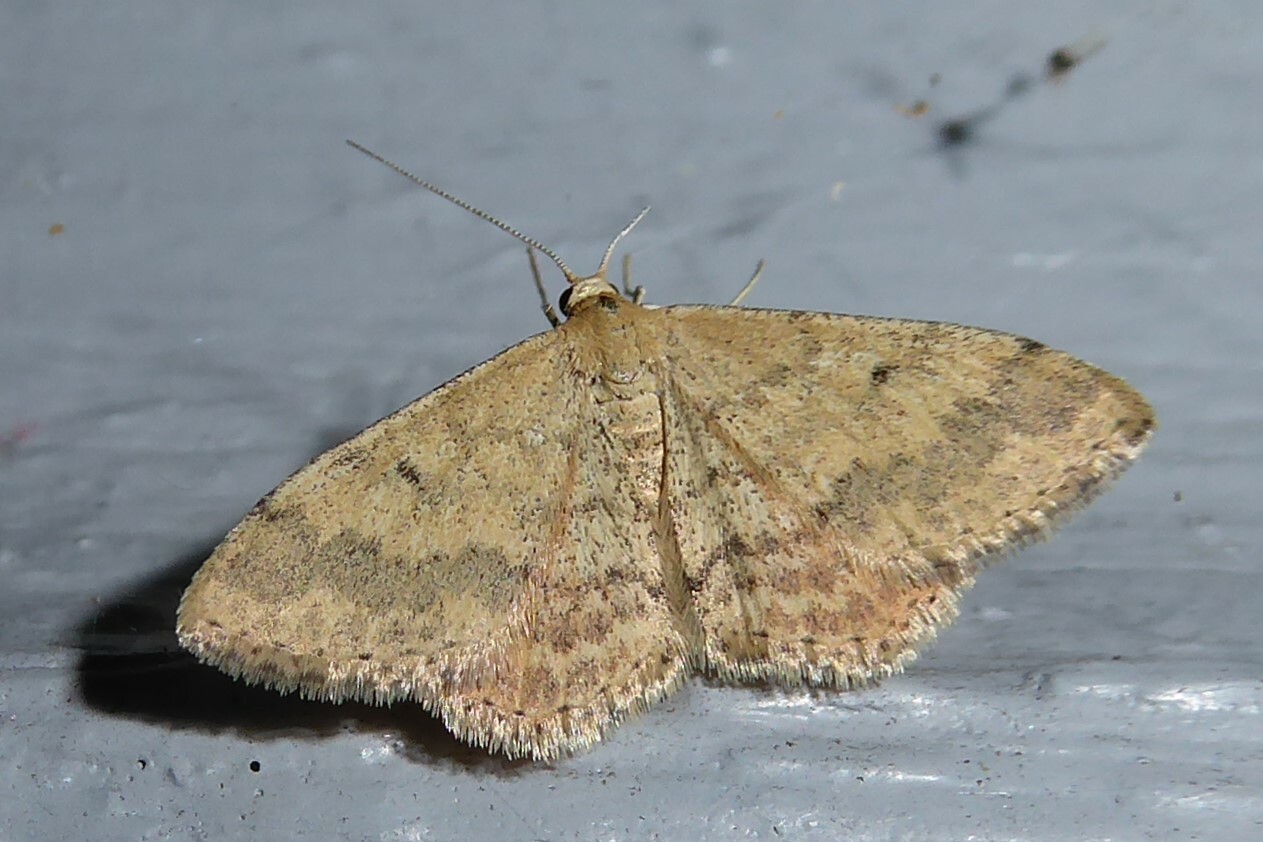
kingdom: Animalia
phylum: Arthropoda
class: Insecta
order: Lepidoptera
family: Geometridae
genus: Scopula
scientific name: Scopula rubraria
